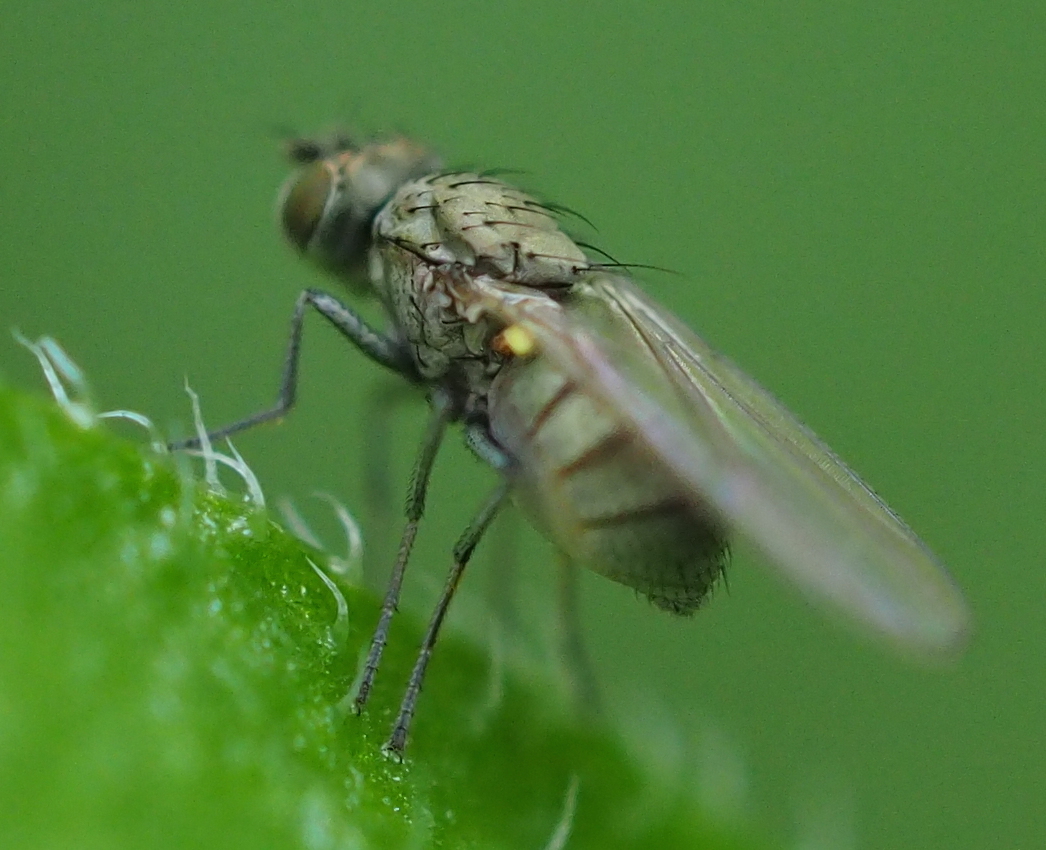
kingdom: Animalia
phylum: Arthropoda
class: Insecta
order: Diptera
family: Ephydridae
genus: Hydrellia
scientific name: Hydrellia griseola
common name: Shore fly
